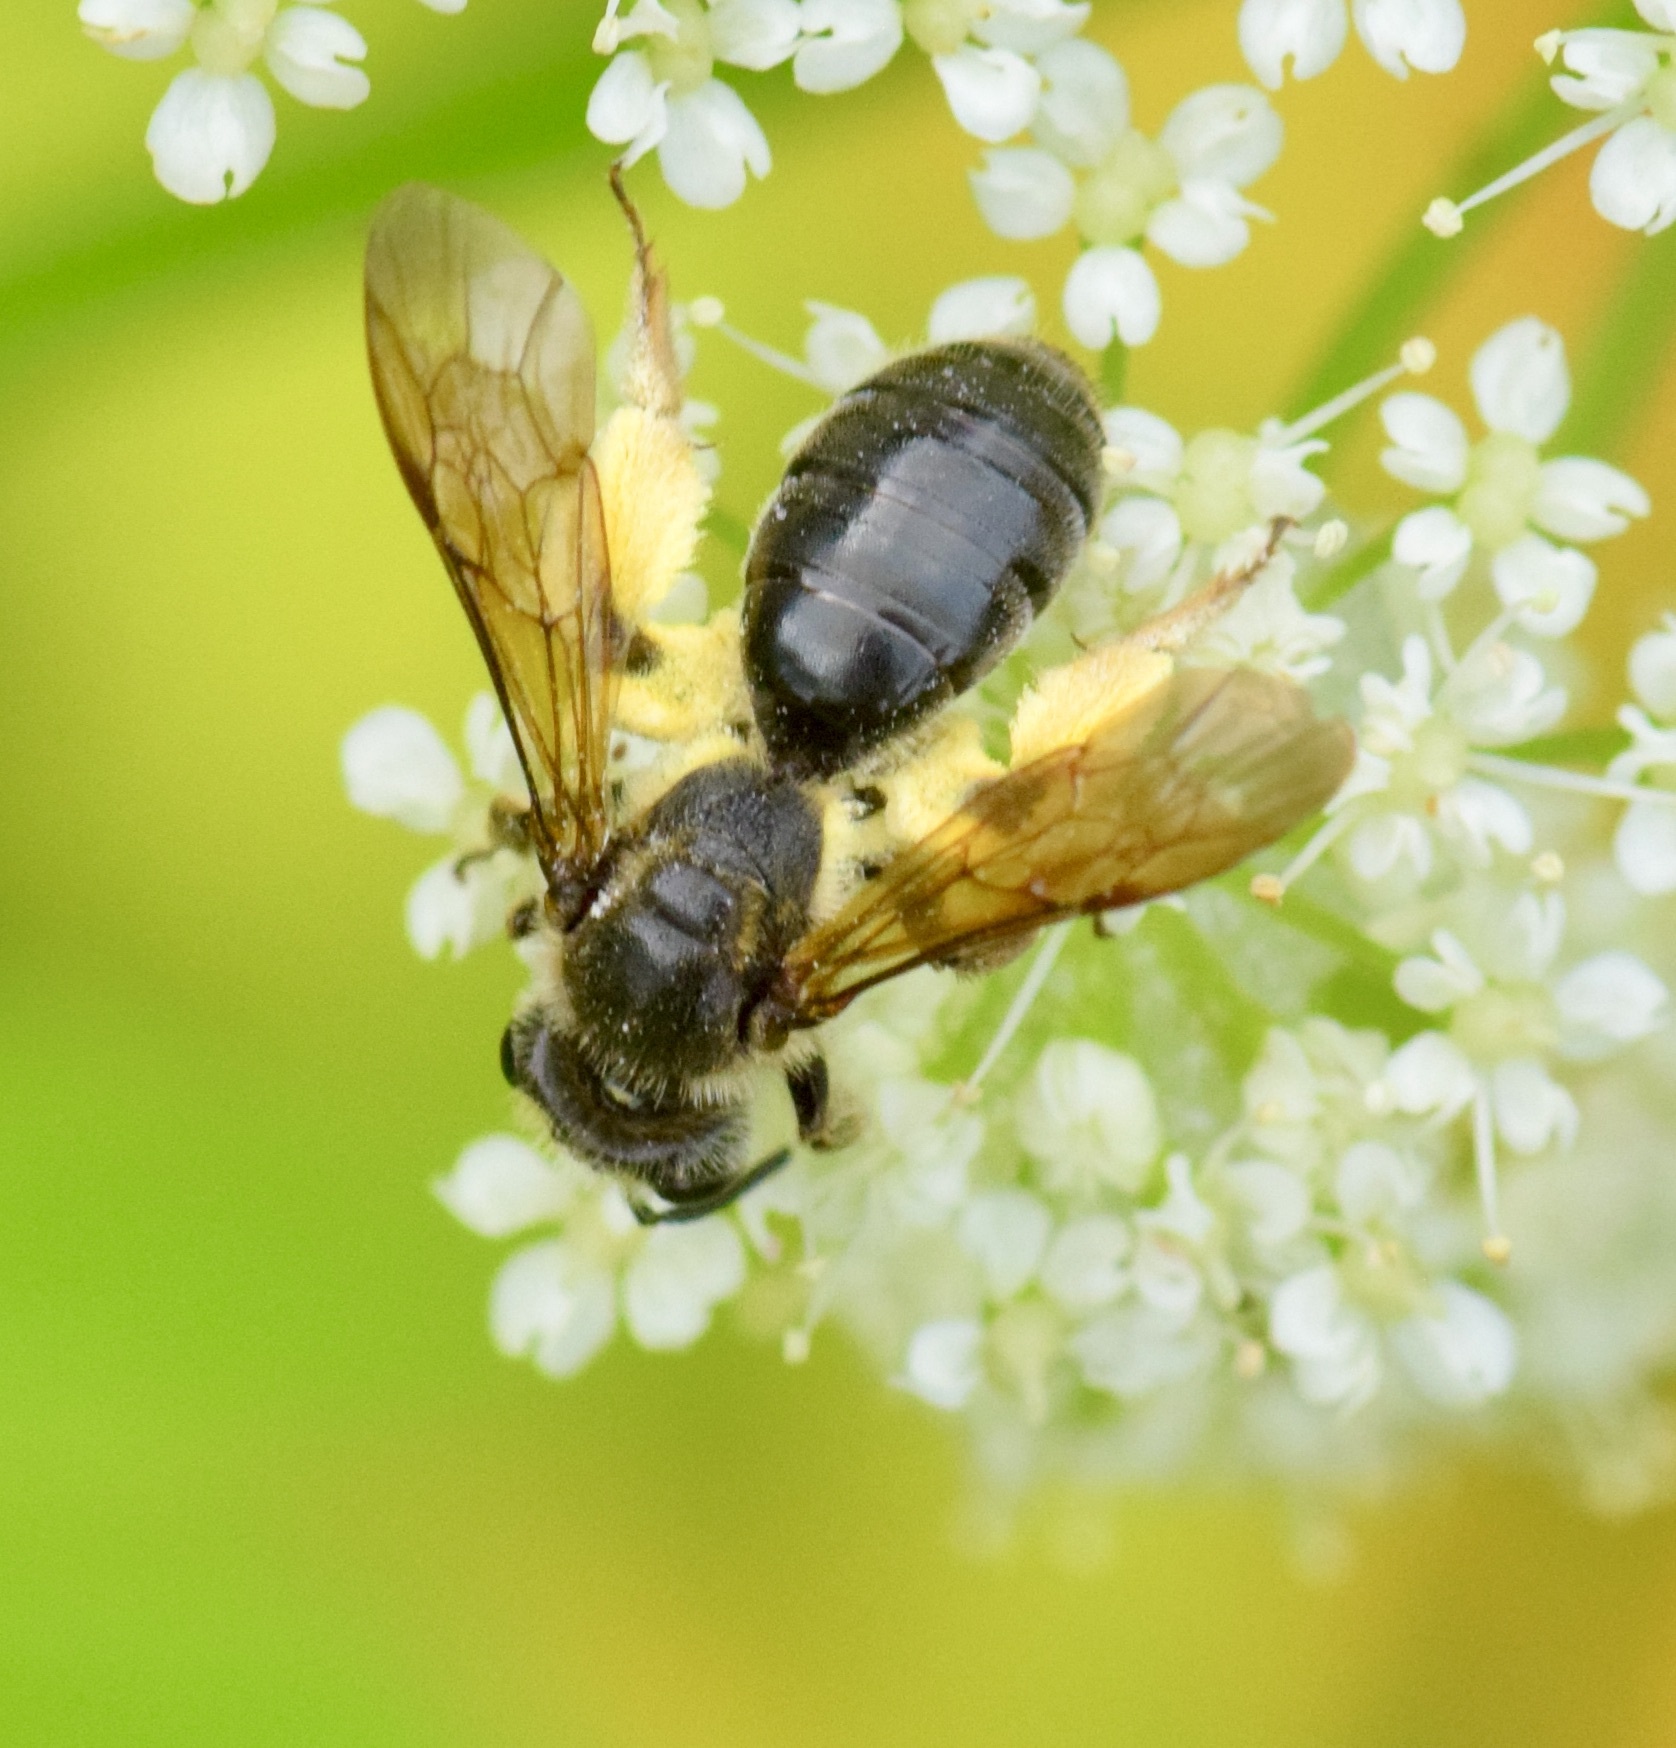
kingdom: Animalia
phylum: Arthropoda
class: Insecta
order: Hymenoptera
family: Andrenidae
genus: Andrena
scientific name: Andrena crataegi
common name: Hawthorn mining bee
